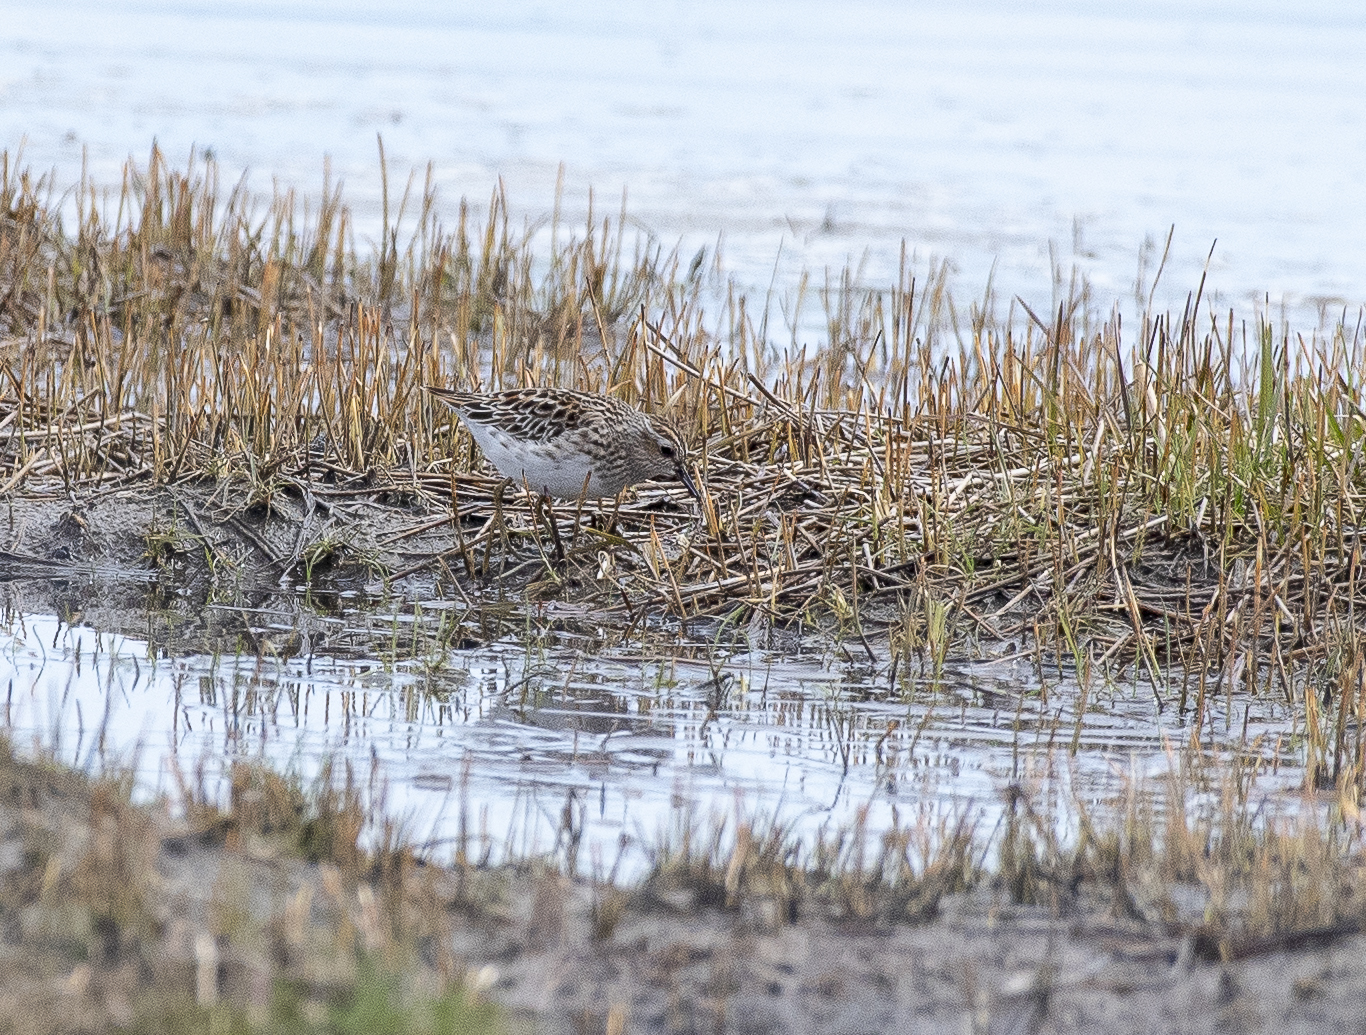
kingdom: Animalia
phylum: Chordata
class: Aves
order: Charadriiformes
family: Scolopacidae
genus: Calidris
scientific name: Calidris subminuta
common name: Long-toed stint
